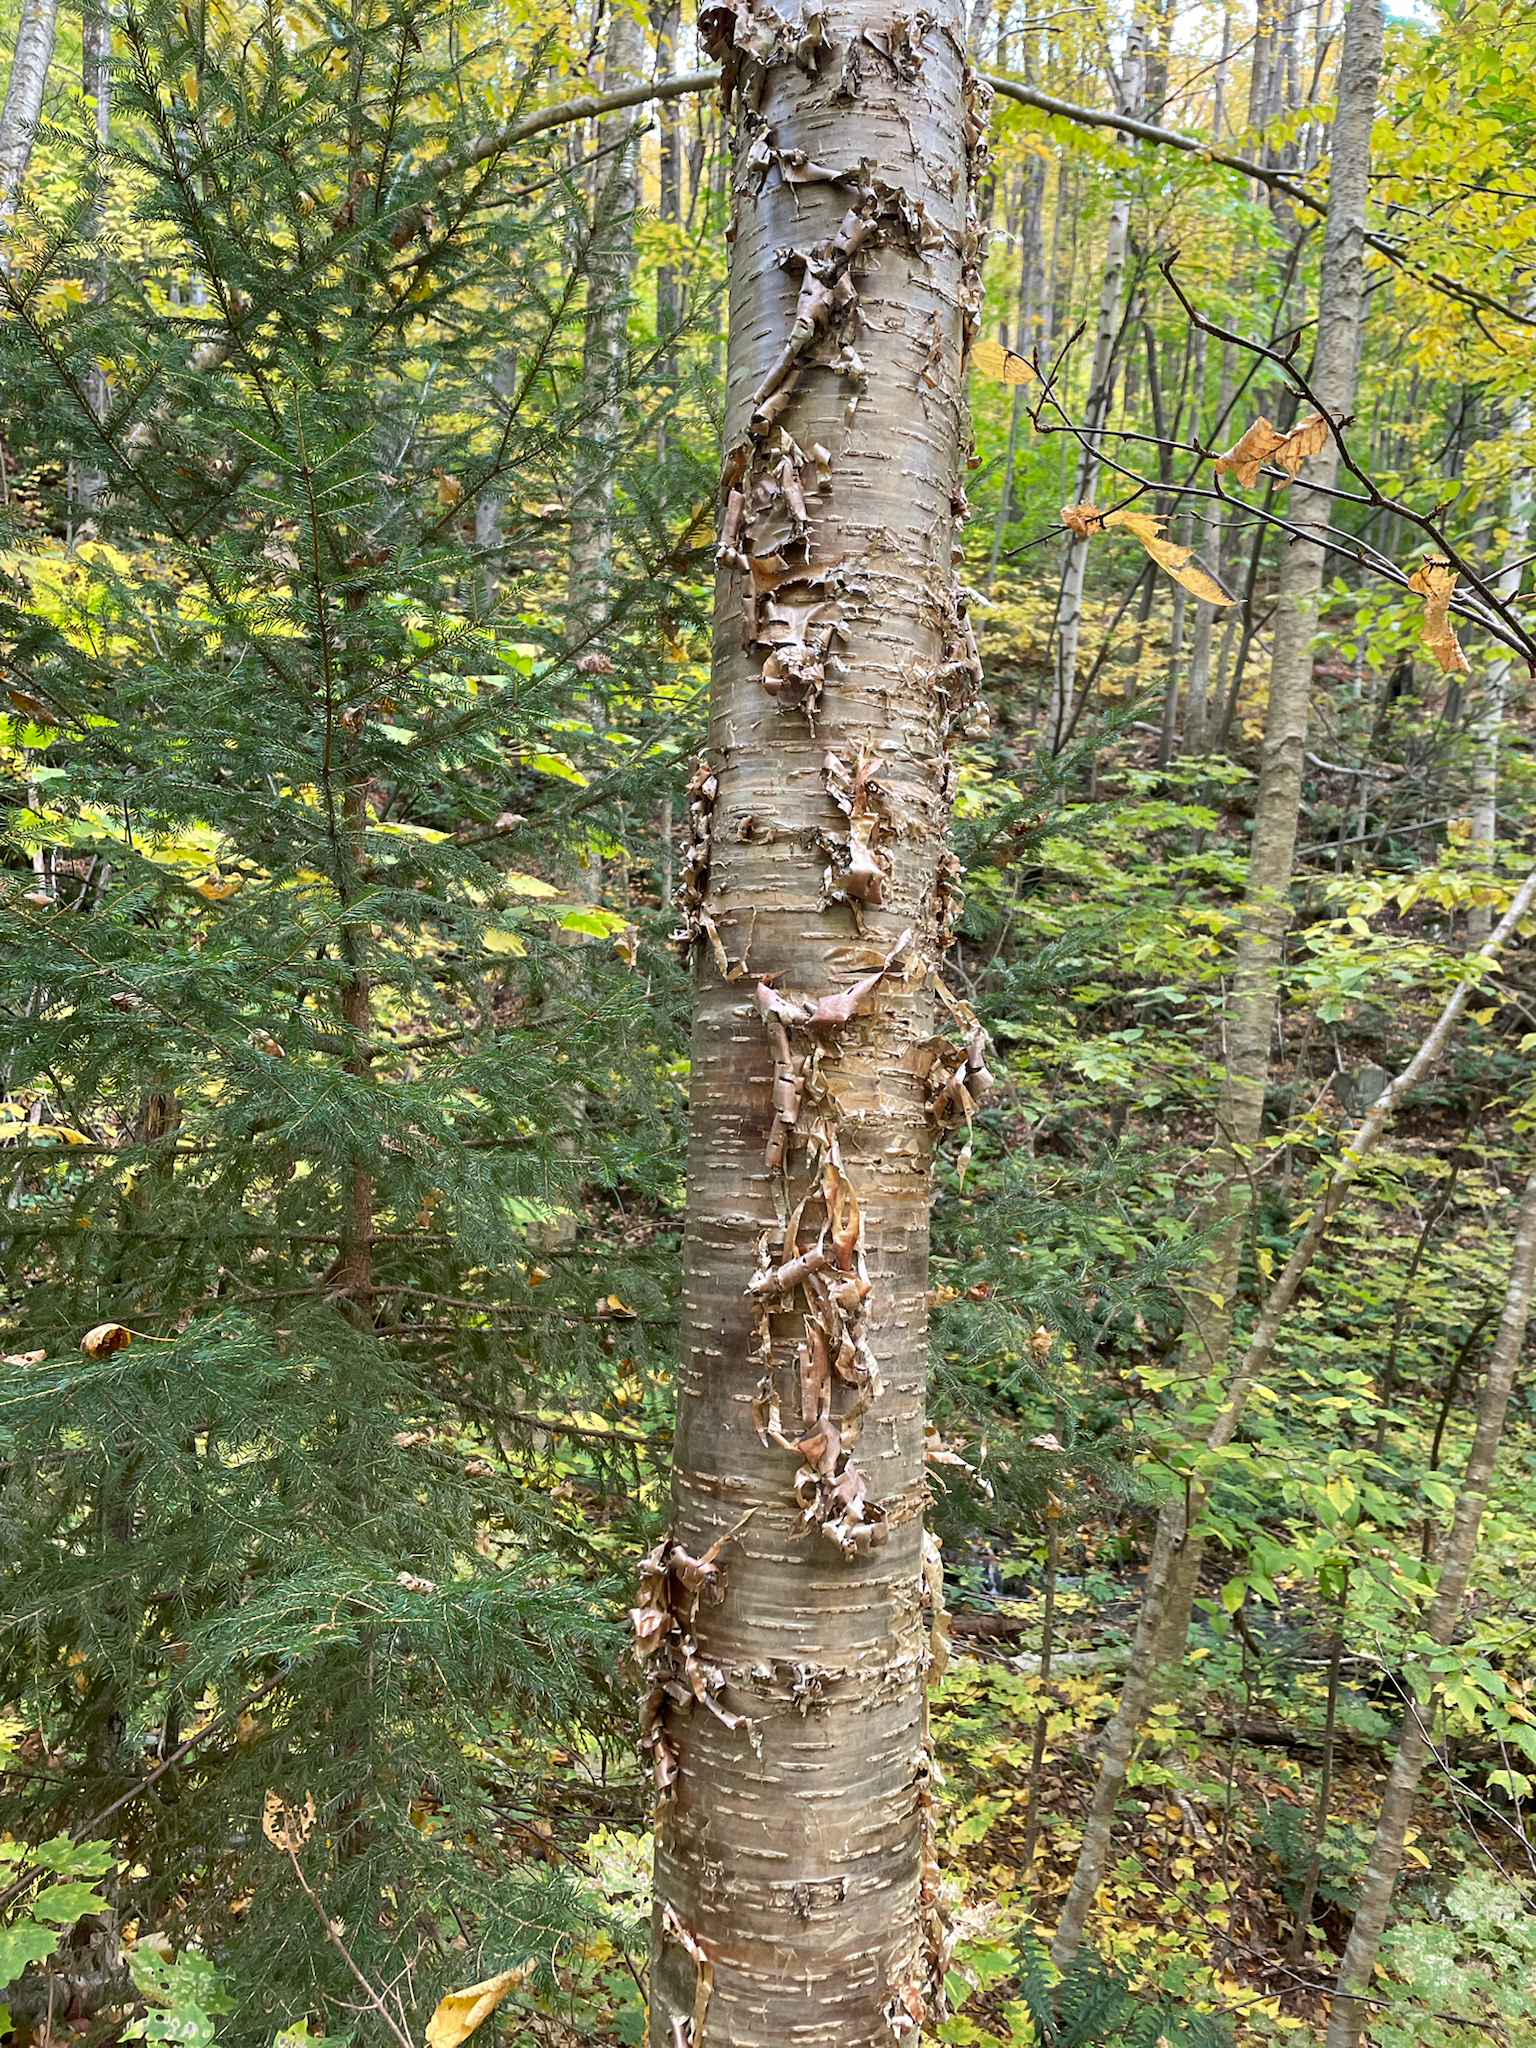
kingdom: Plantae
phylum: Tracheophyta
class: Magnoliopsida
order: Fagales
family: Betulaceae
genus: Betula
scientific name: Betula alleghaniensis
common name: Yellow birch
